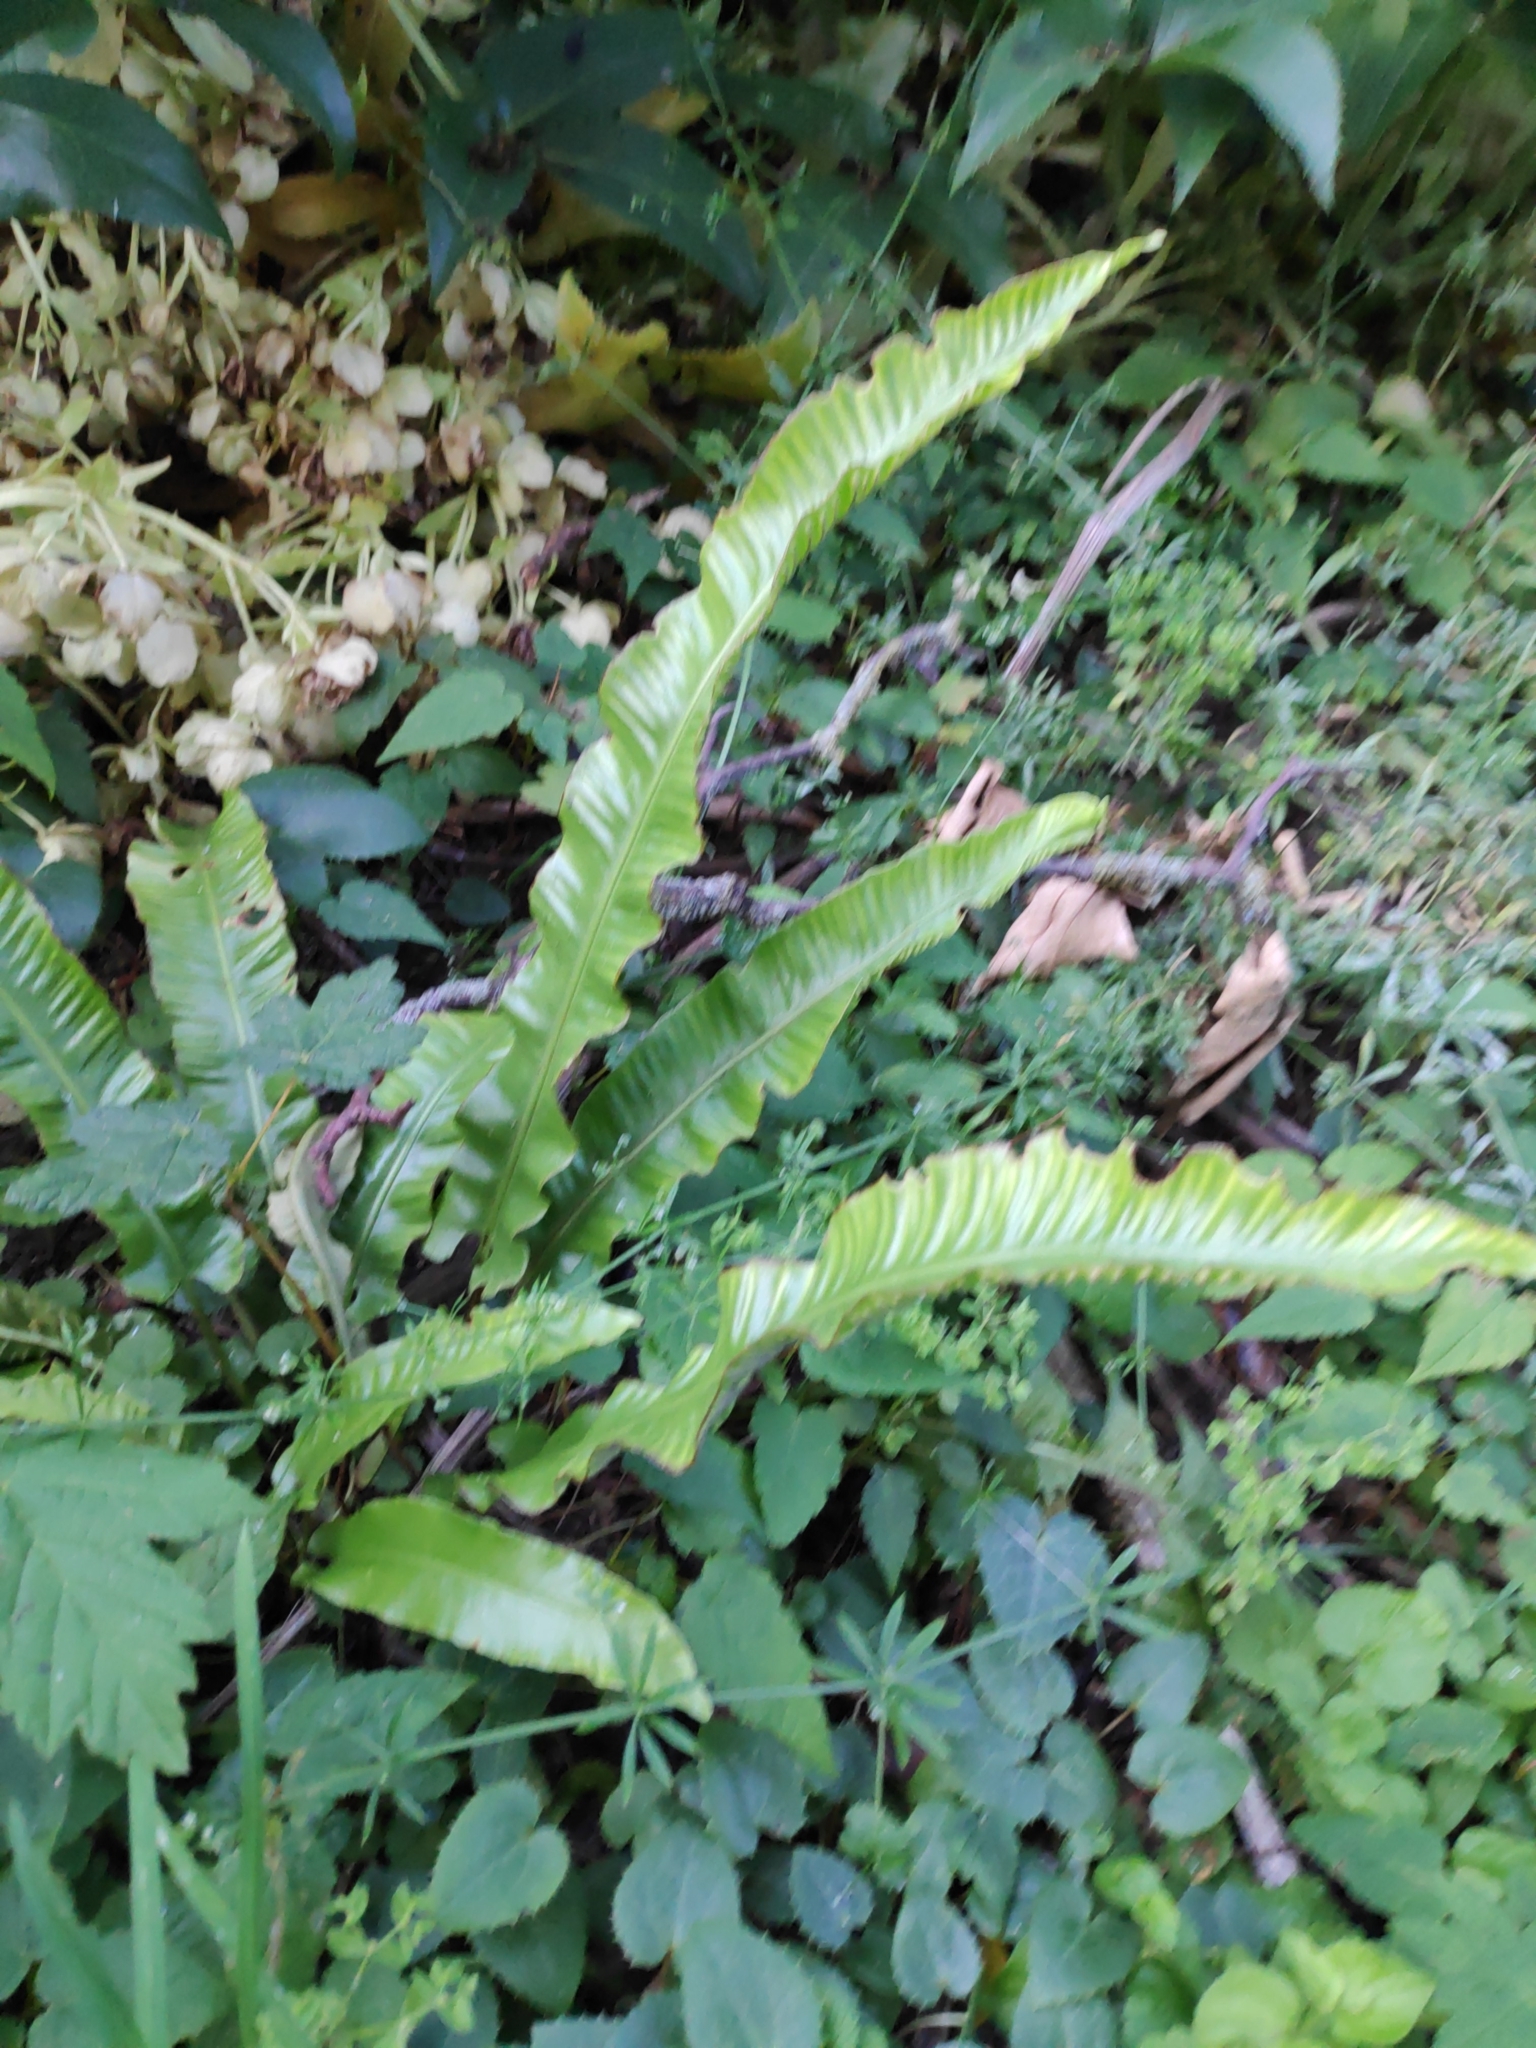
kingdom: Plantae
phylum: Tracheophyta
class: Polypodiopsida
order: Polypodiales
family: Aspleniaceae
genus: Asplenium
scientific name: Asplenium scolopendrium
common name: Hart's-tongue fern
